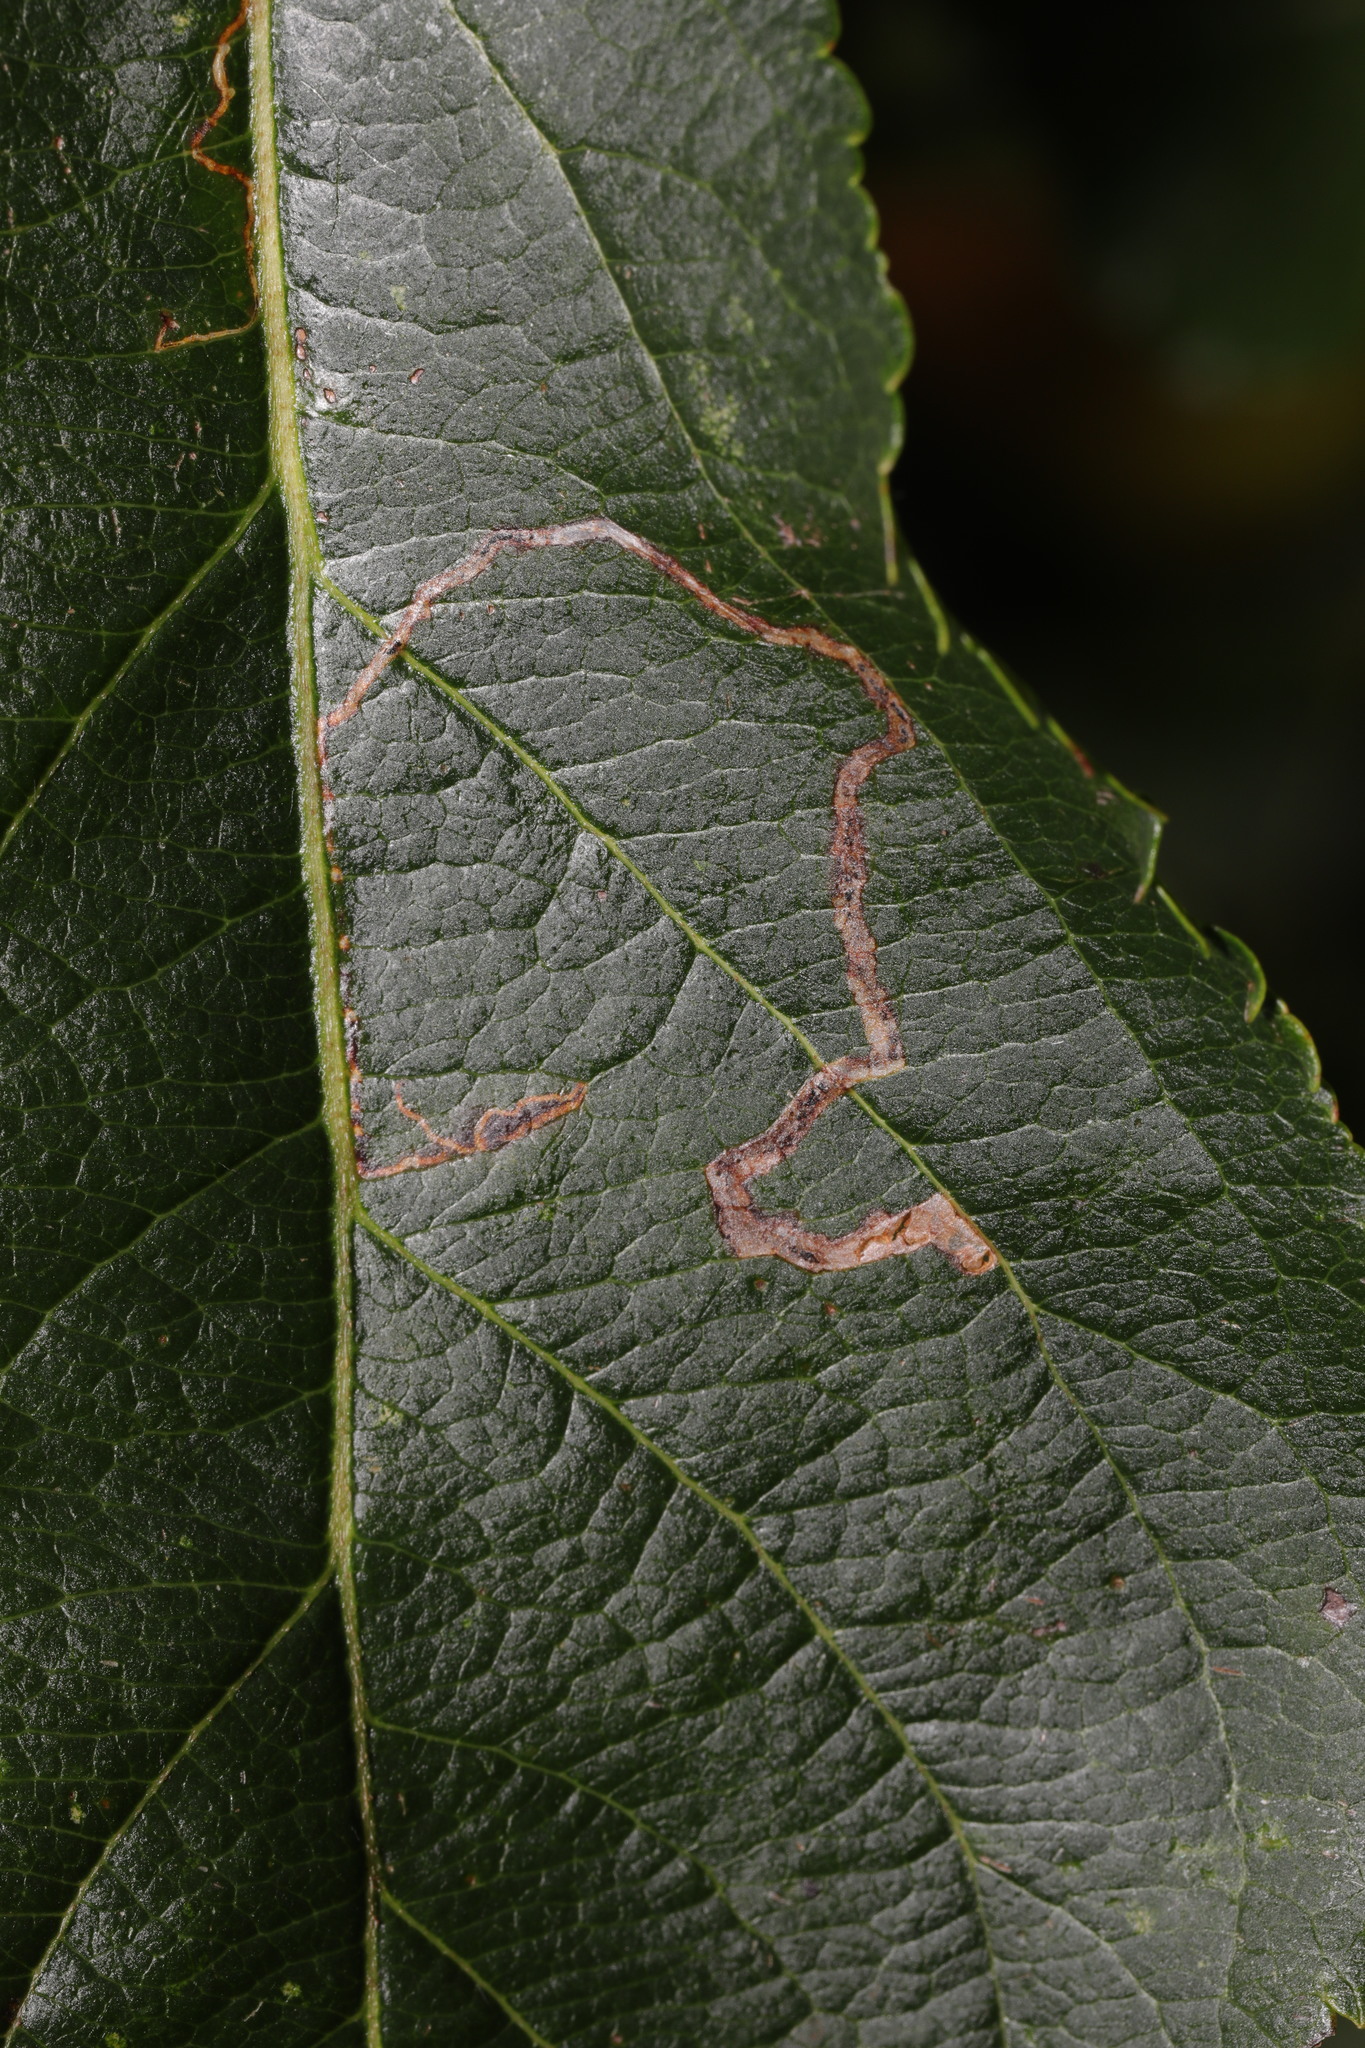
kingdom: Animalia
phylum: Arthropoda
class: Insecta
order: Lepidoptera
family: Lyonetiidae
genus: Lyonetia
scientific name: Lyonetia clerkella
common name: Apple leaf miner
